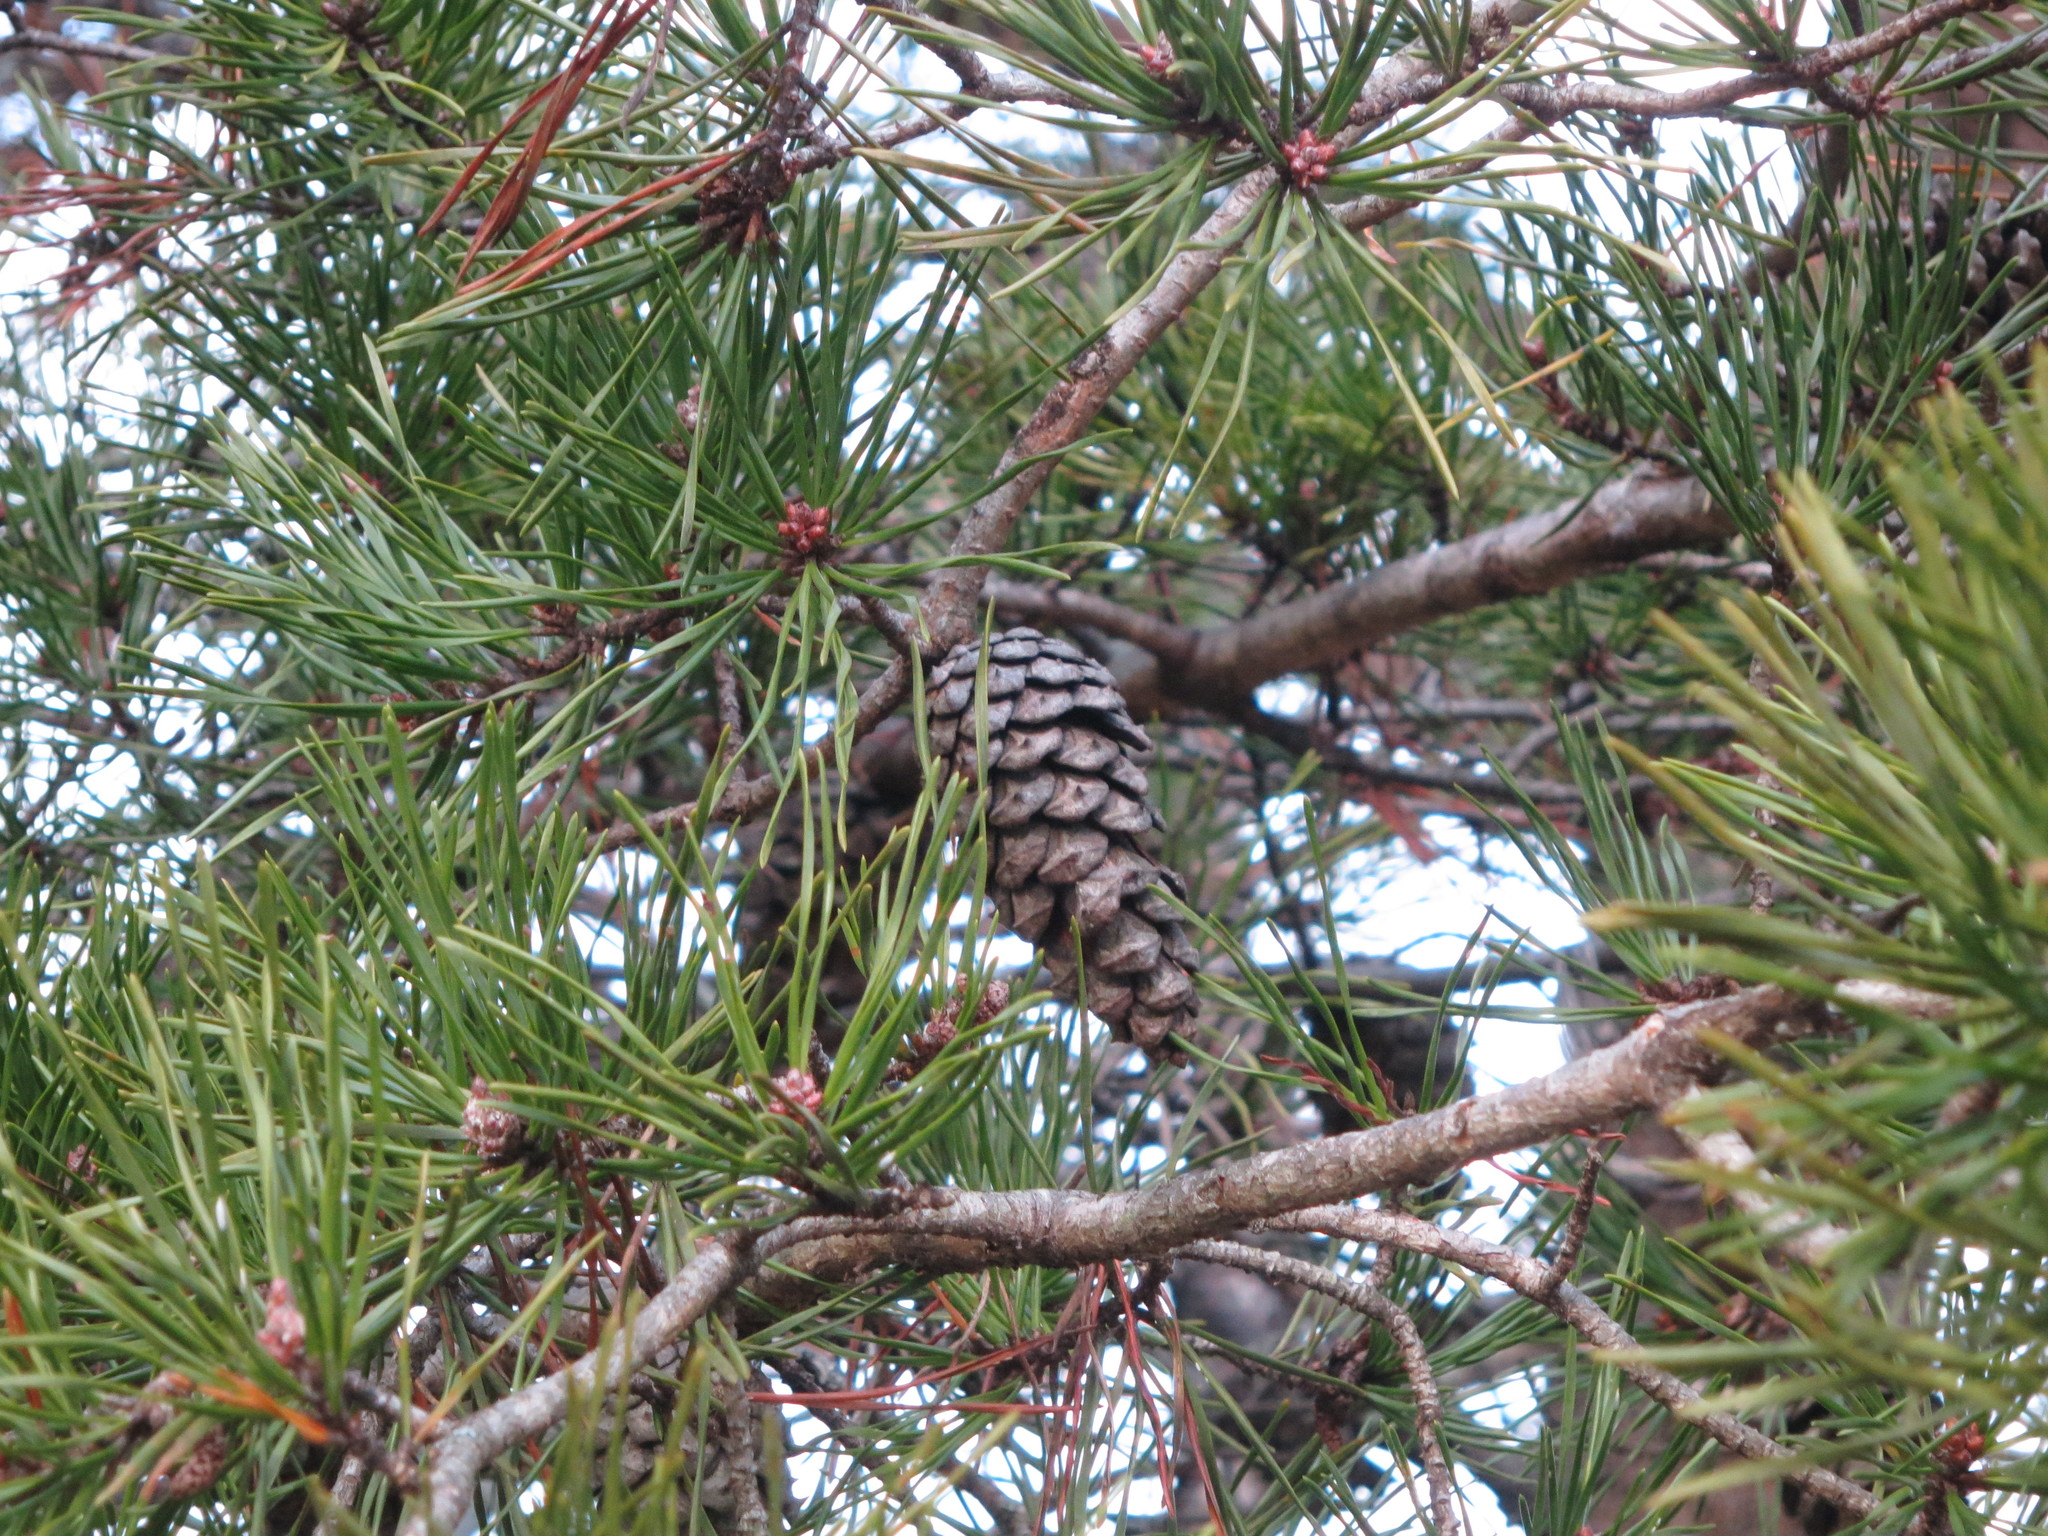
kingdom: Plantae
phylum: Tracheophyta
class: Pinopsida
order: Pinales
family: Pinaceae
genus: Pinus
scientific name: Pinus virginiana
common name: Scrub pine
